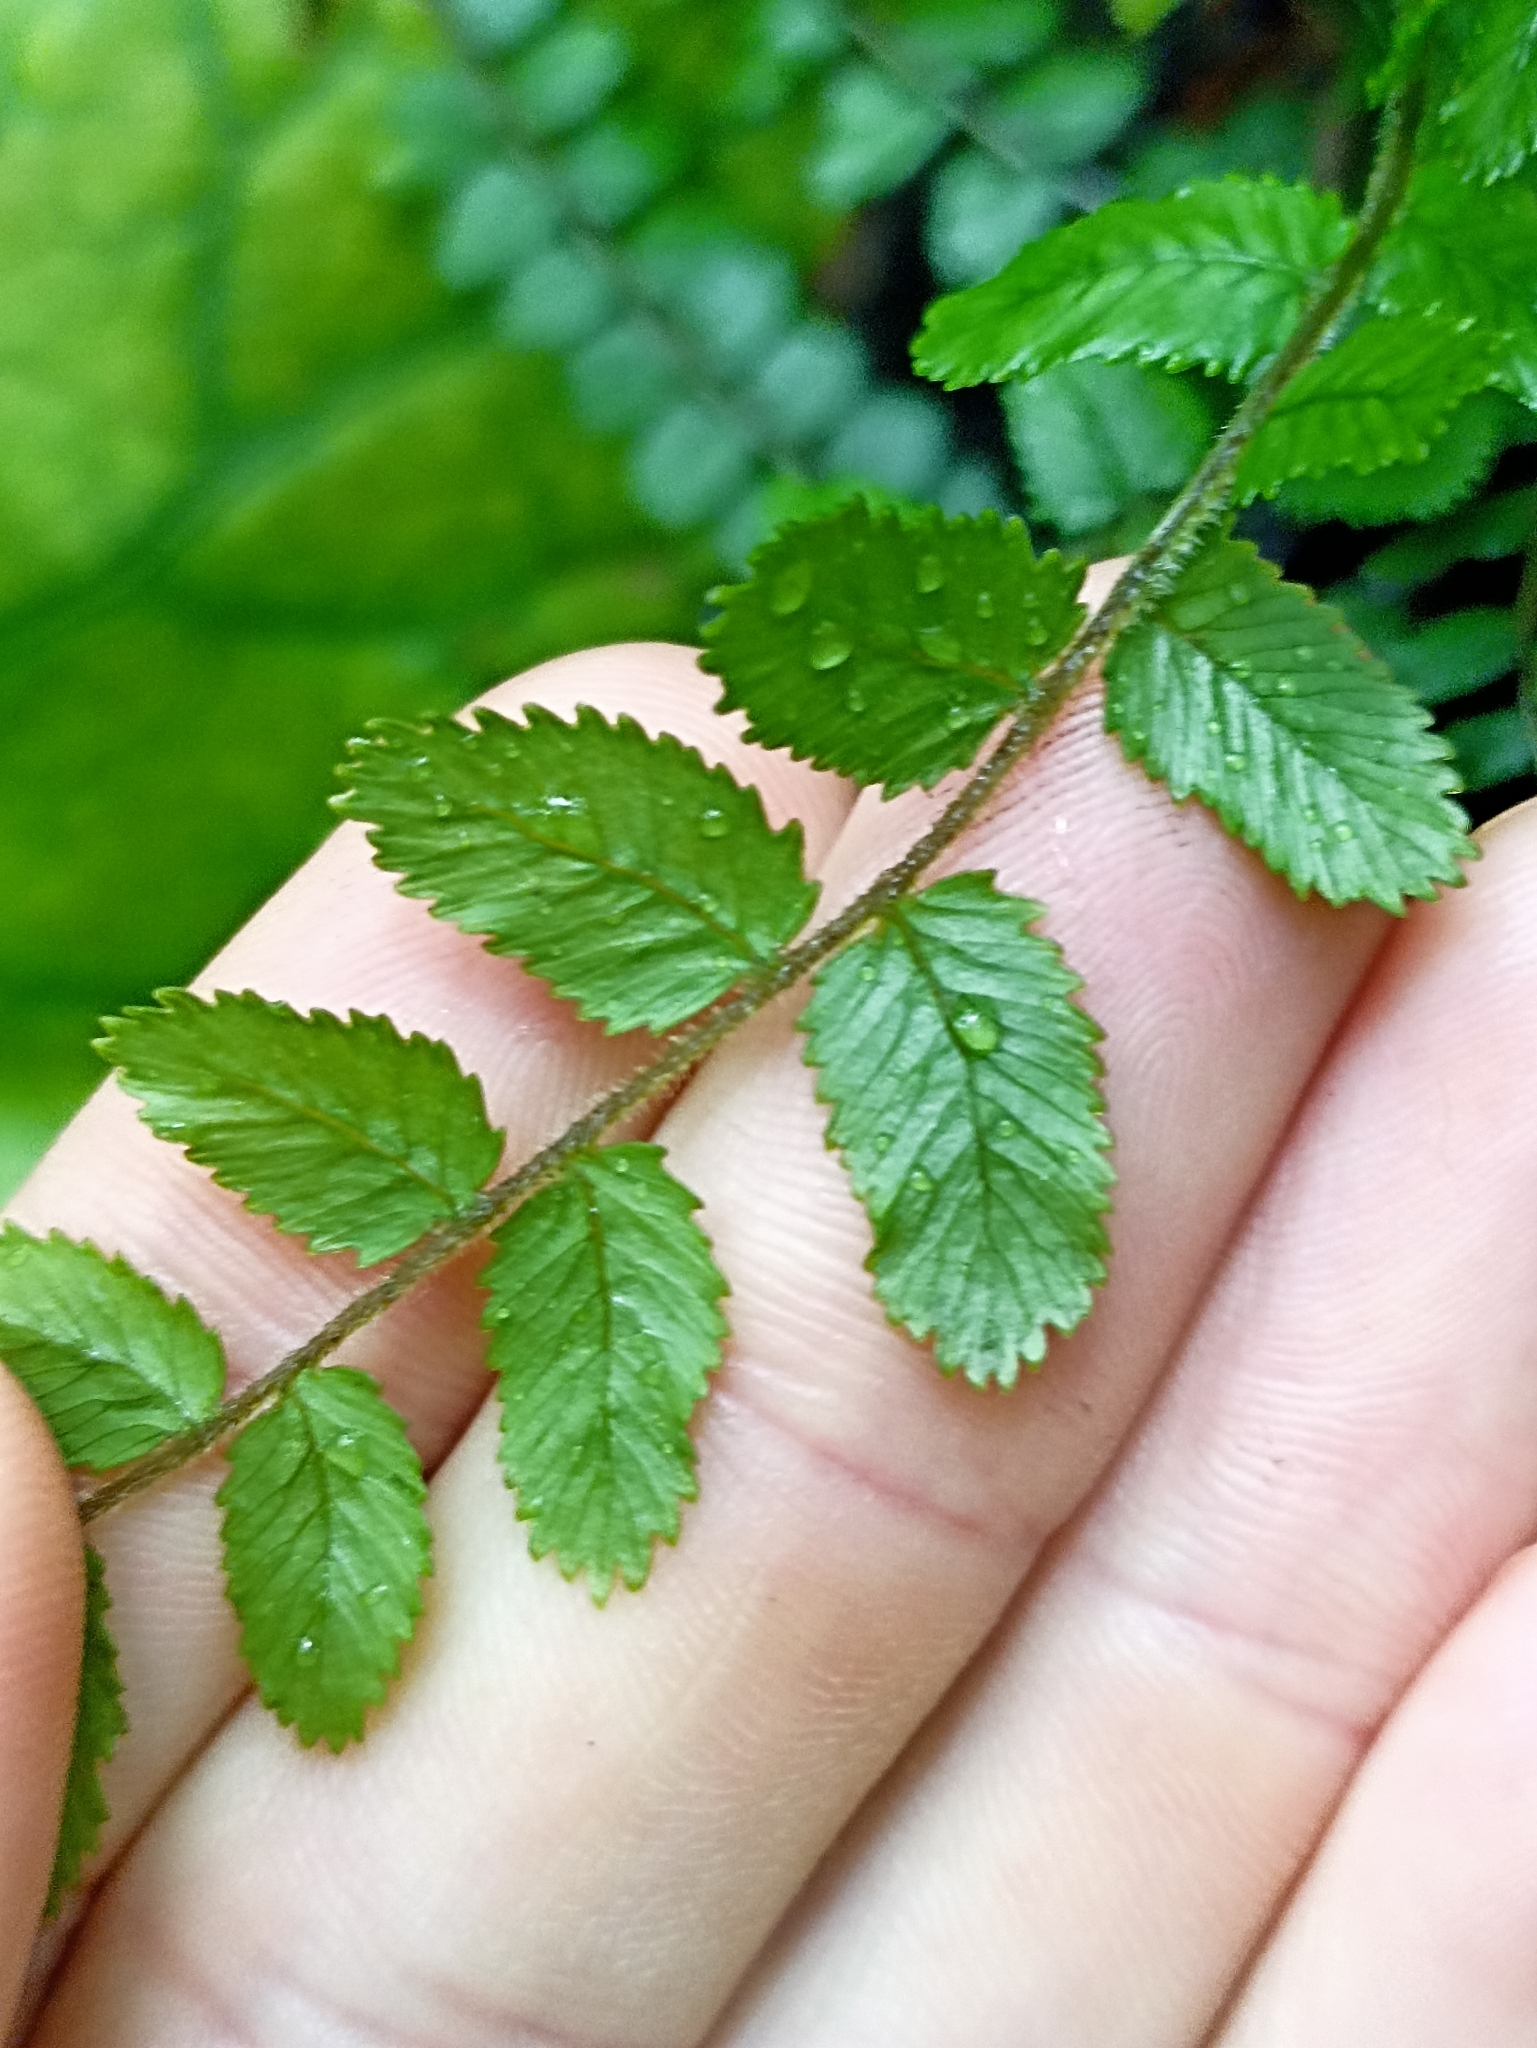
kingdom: Plantae
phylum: Tracheophyta
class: Polypodiopsida
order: Polypodiales
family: Blechnaceae
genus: Icarus
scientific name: Icarus filiformis
